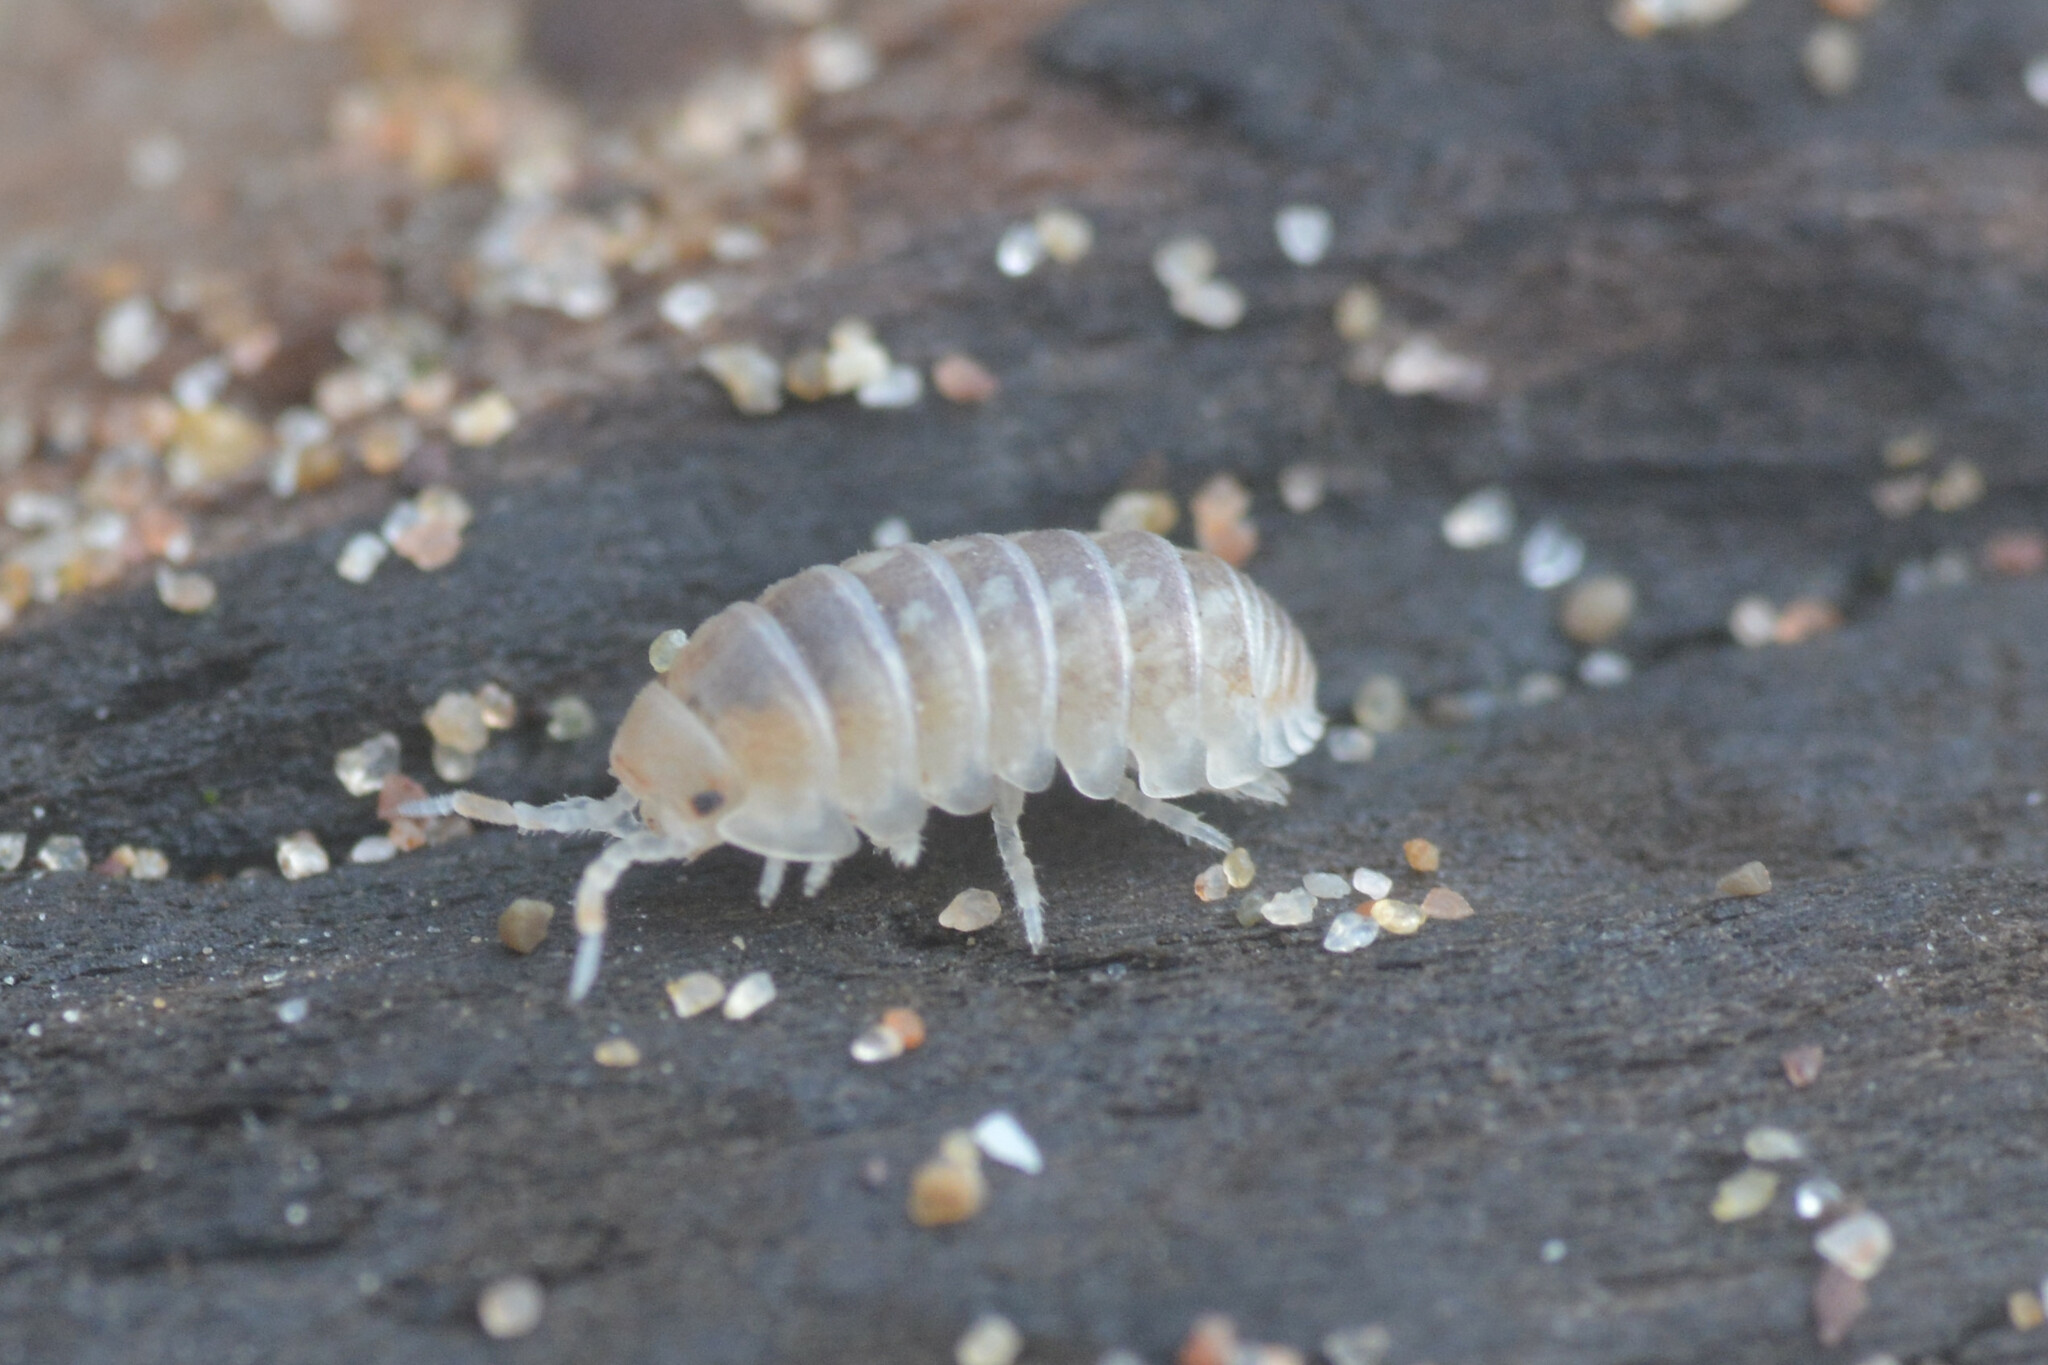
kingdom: Animalia
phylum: Arthropoda
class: Malacostraca
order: Isopoda
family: Armadillidiidae
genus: Armadillidium
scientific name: Armadillidium album
